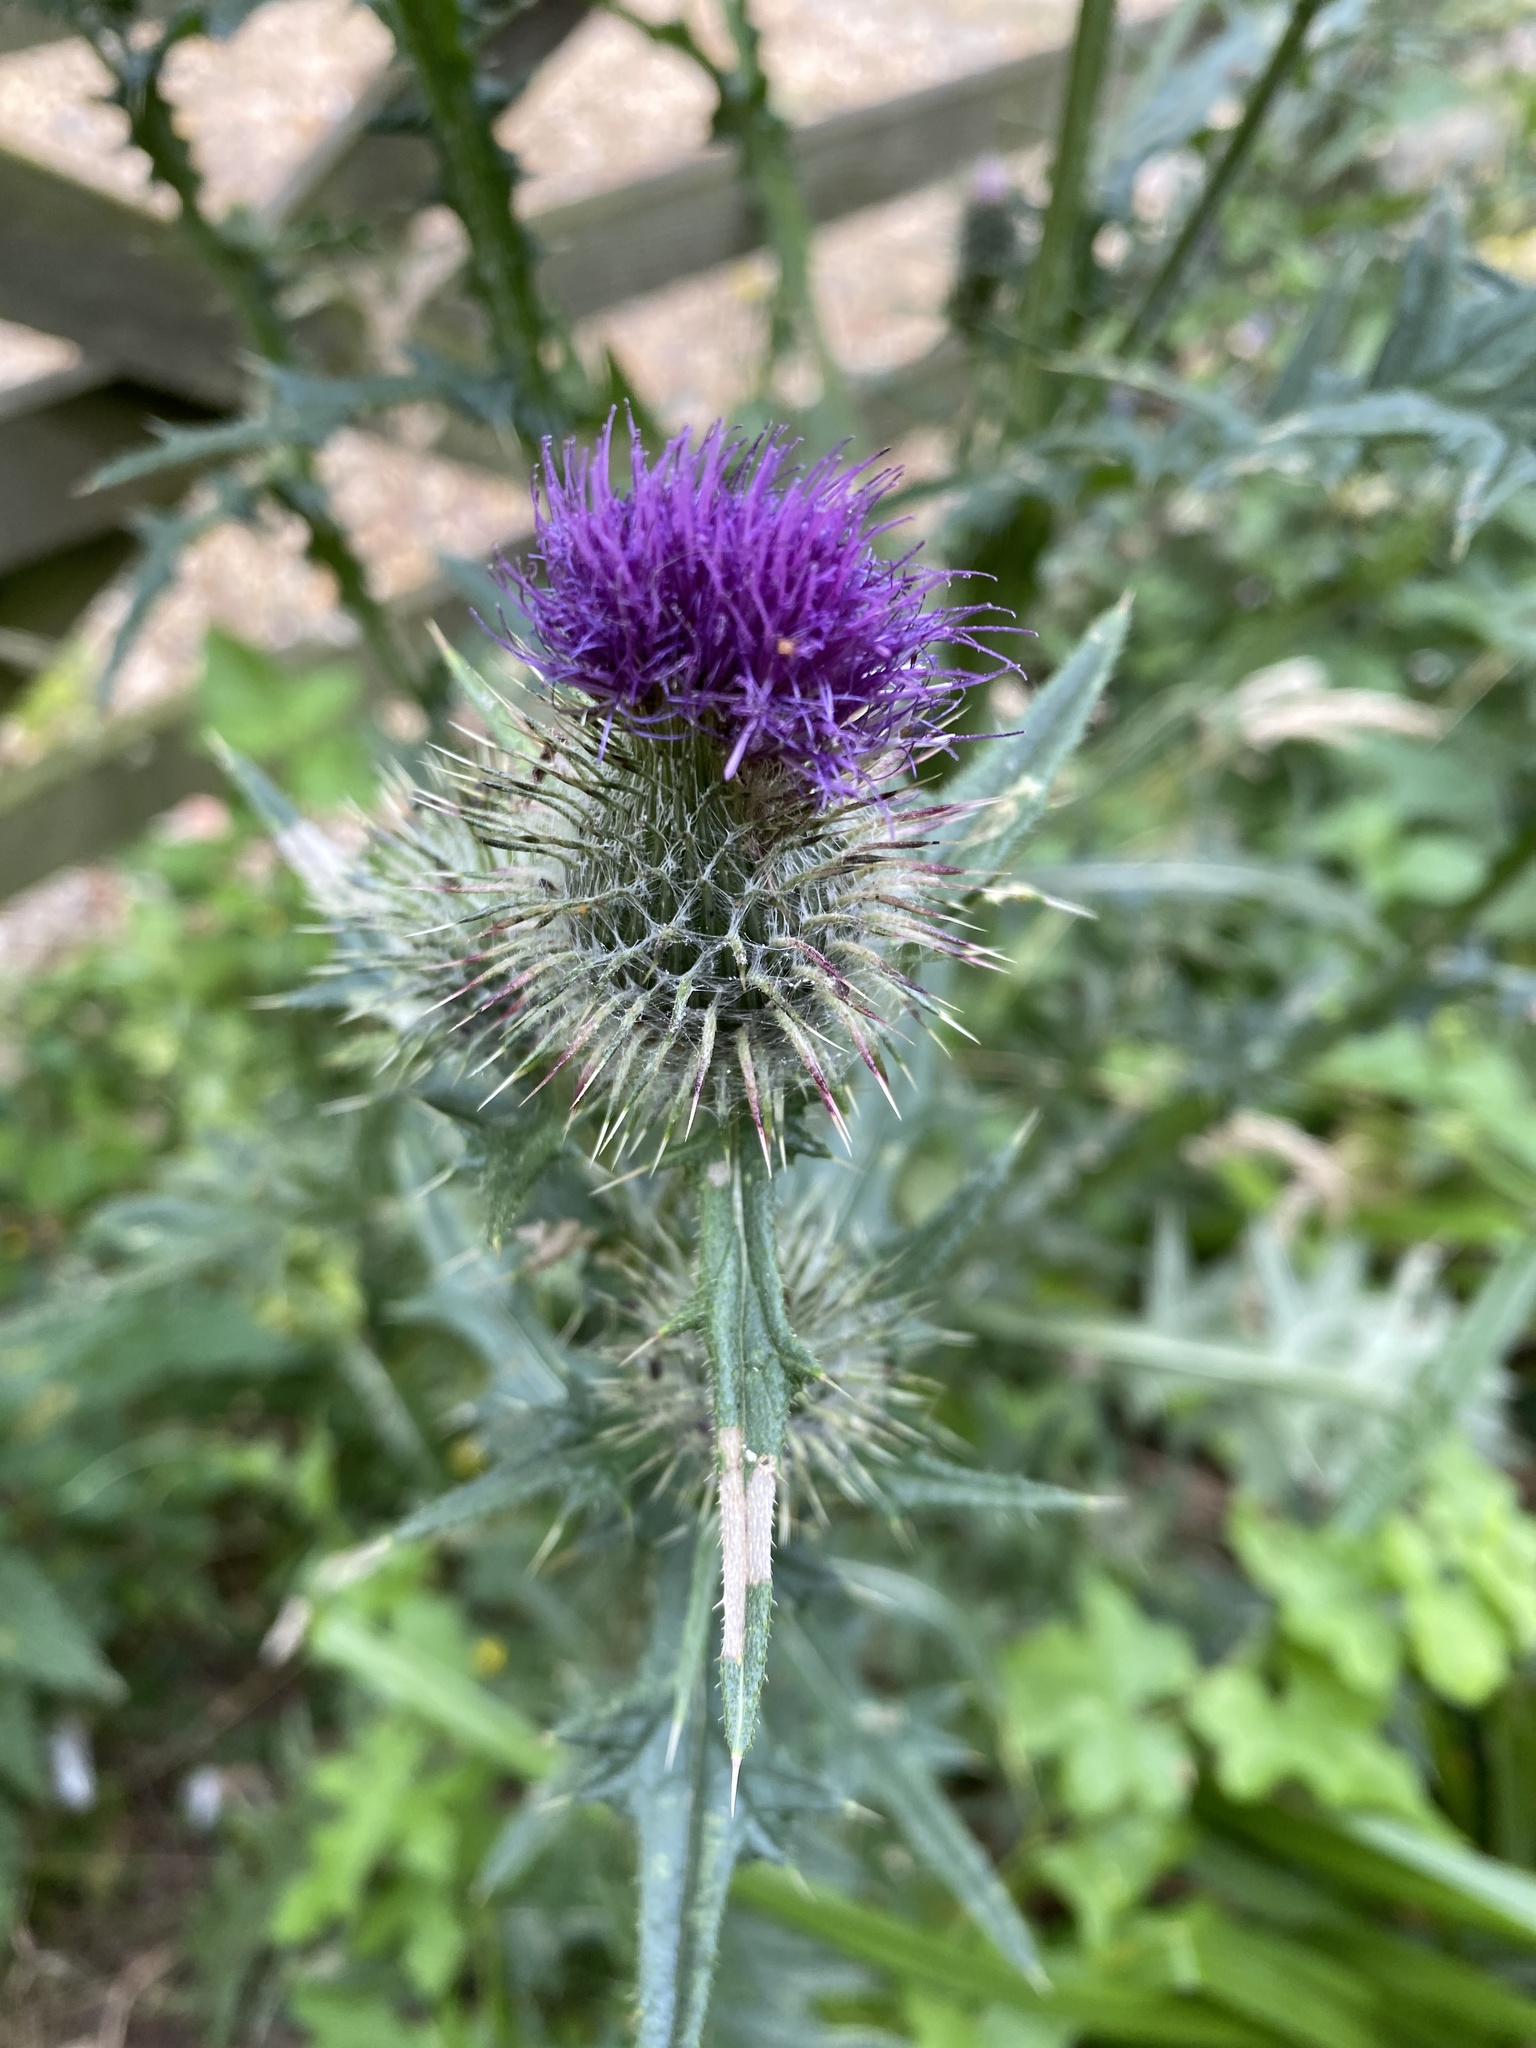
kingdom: Plantae
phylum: Tracheophyta
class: Magnoliopsida
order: Asterales
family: Asteraceae
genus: Cirsium
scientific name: Cirsium vulgare
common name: Bull thistle
